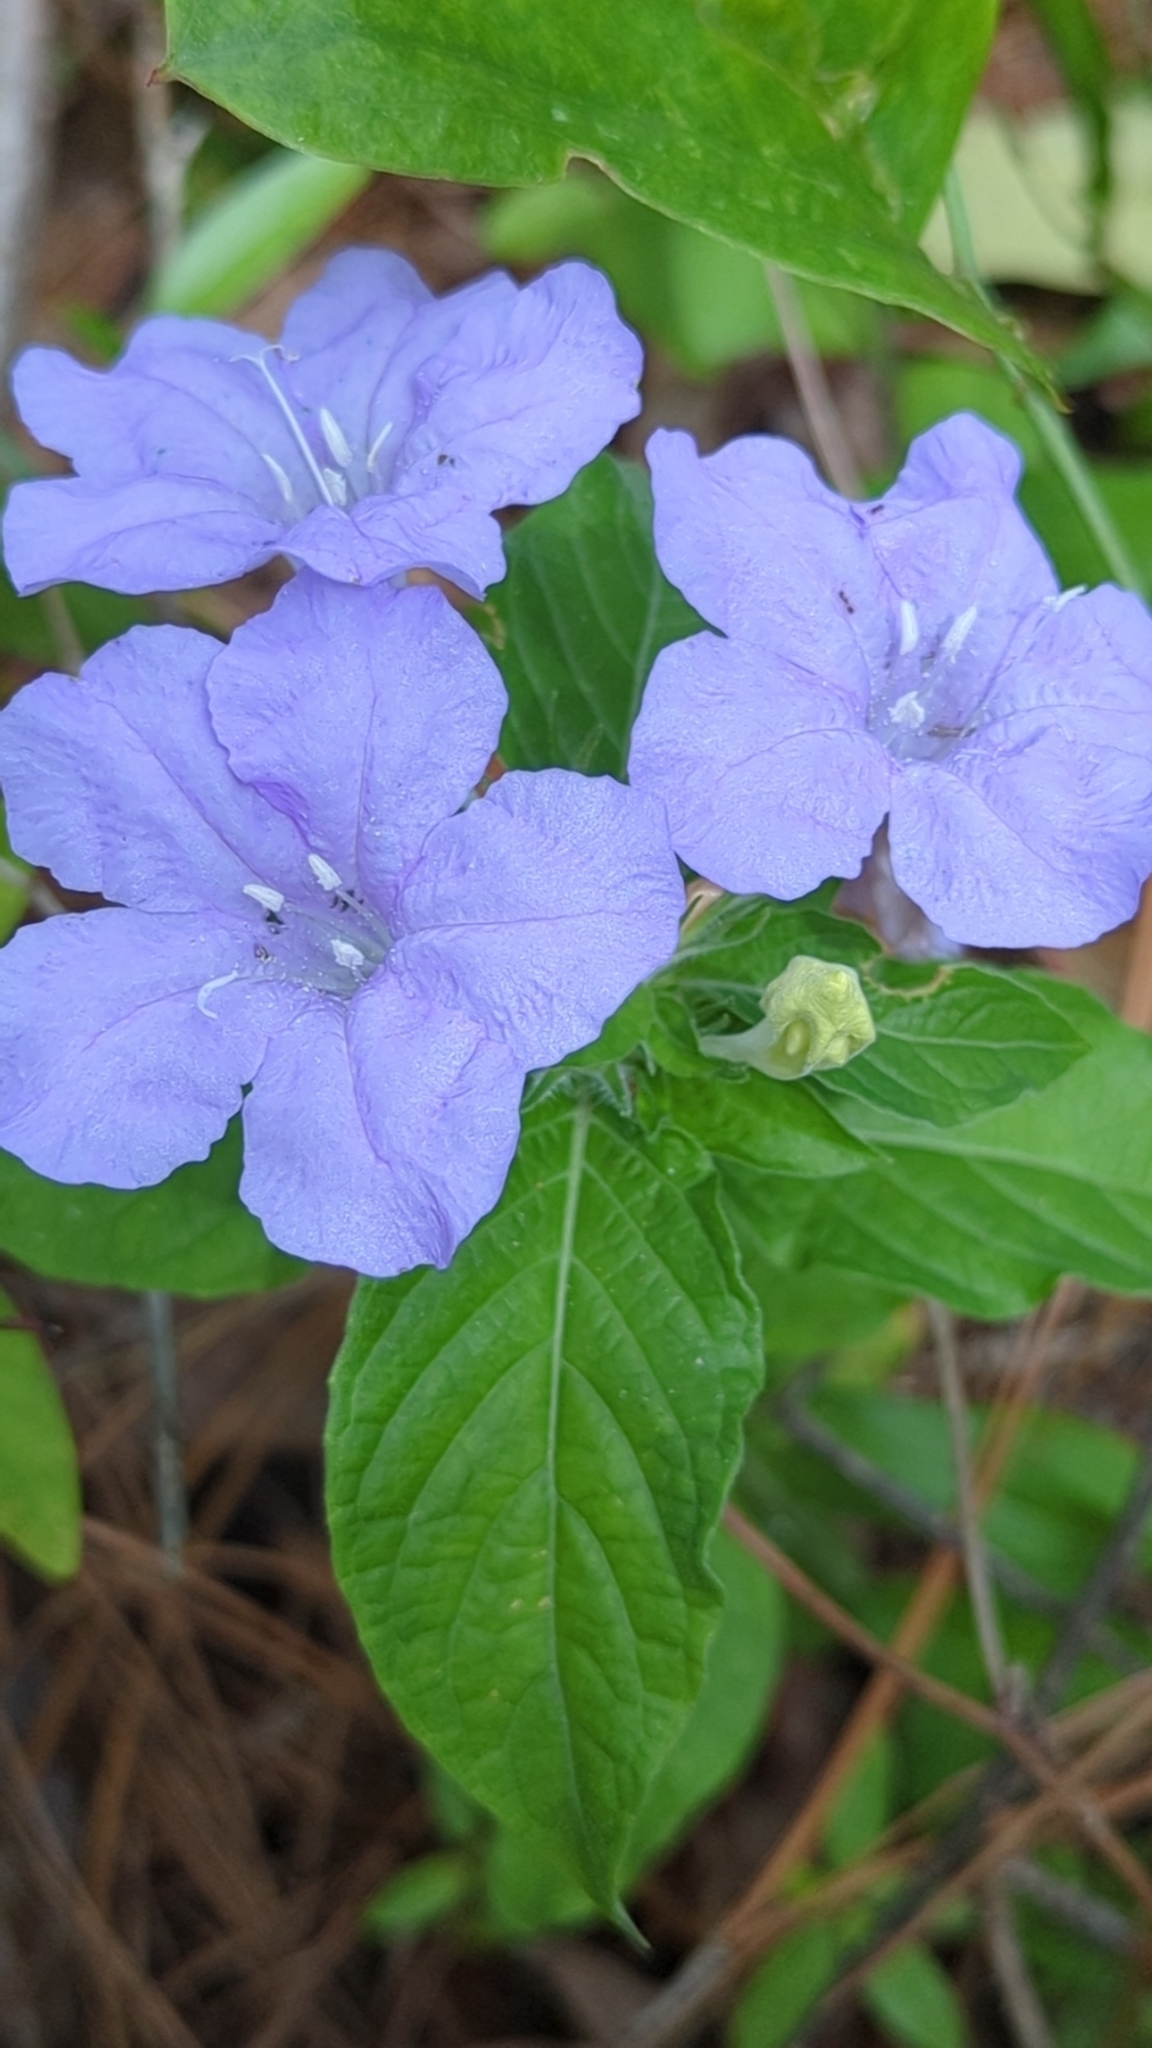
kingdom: Plantae
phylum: Tracheophyta
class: Magnoliopsida
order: Lamiales
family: Acanthaceae
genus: Ruellia
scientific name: Ruellia caroliniensis
